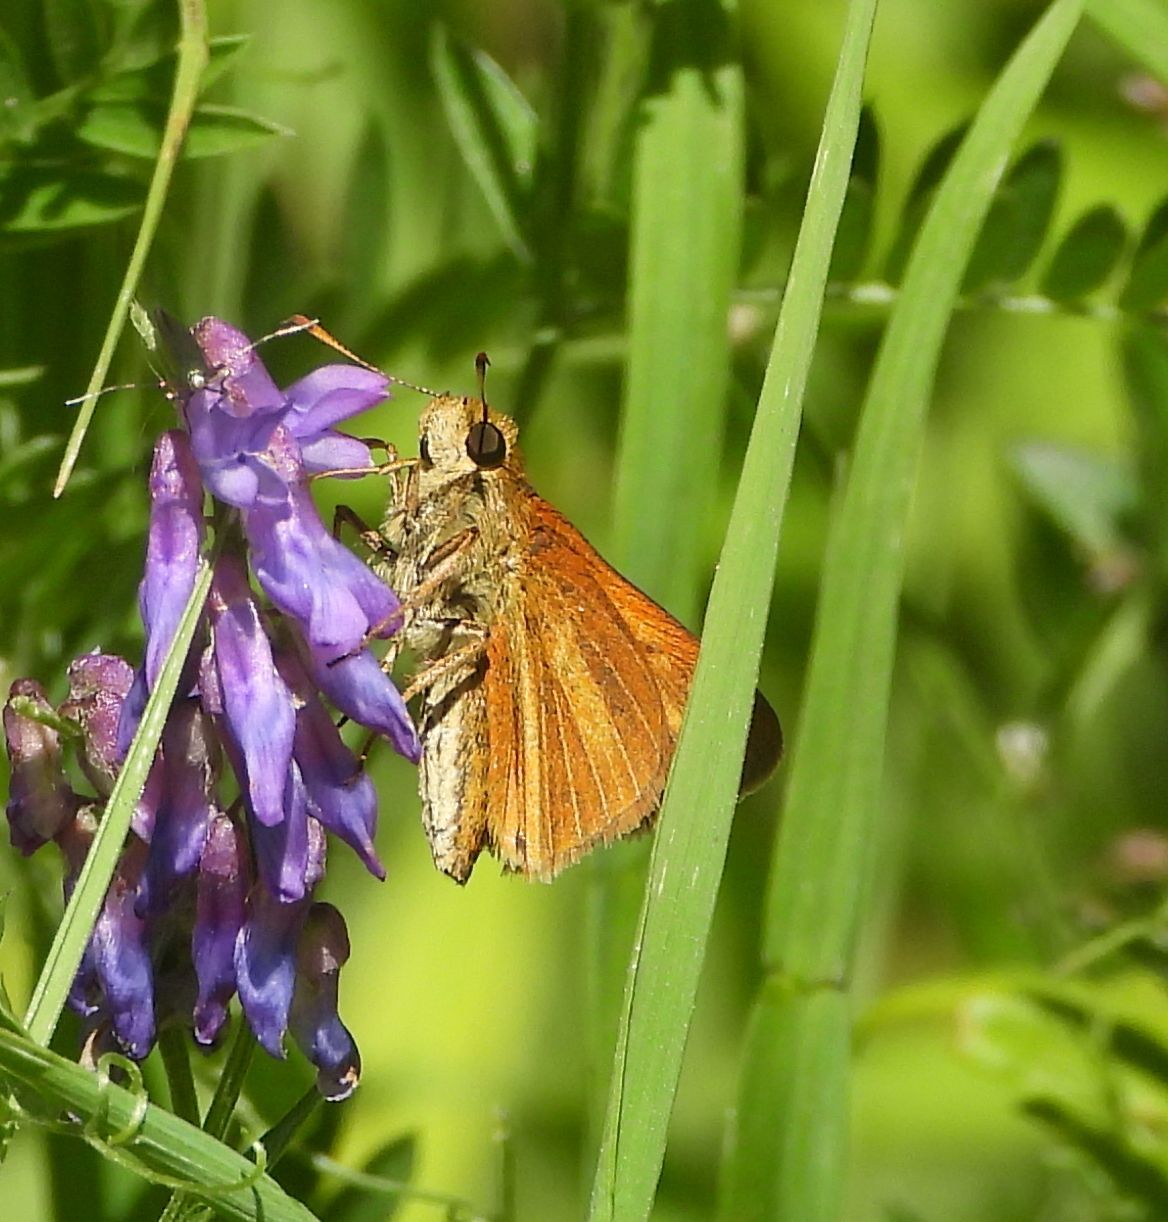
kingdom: Animalia
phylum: Arthropoda
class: Insecta
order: Lepidoptera
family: Hesperiidae
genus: Euphyes
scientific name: Euphyes dion
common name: Dion skipper
